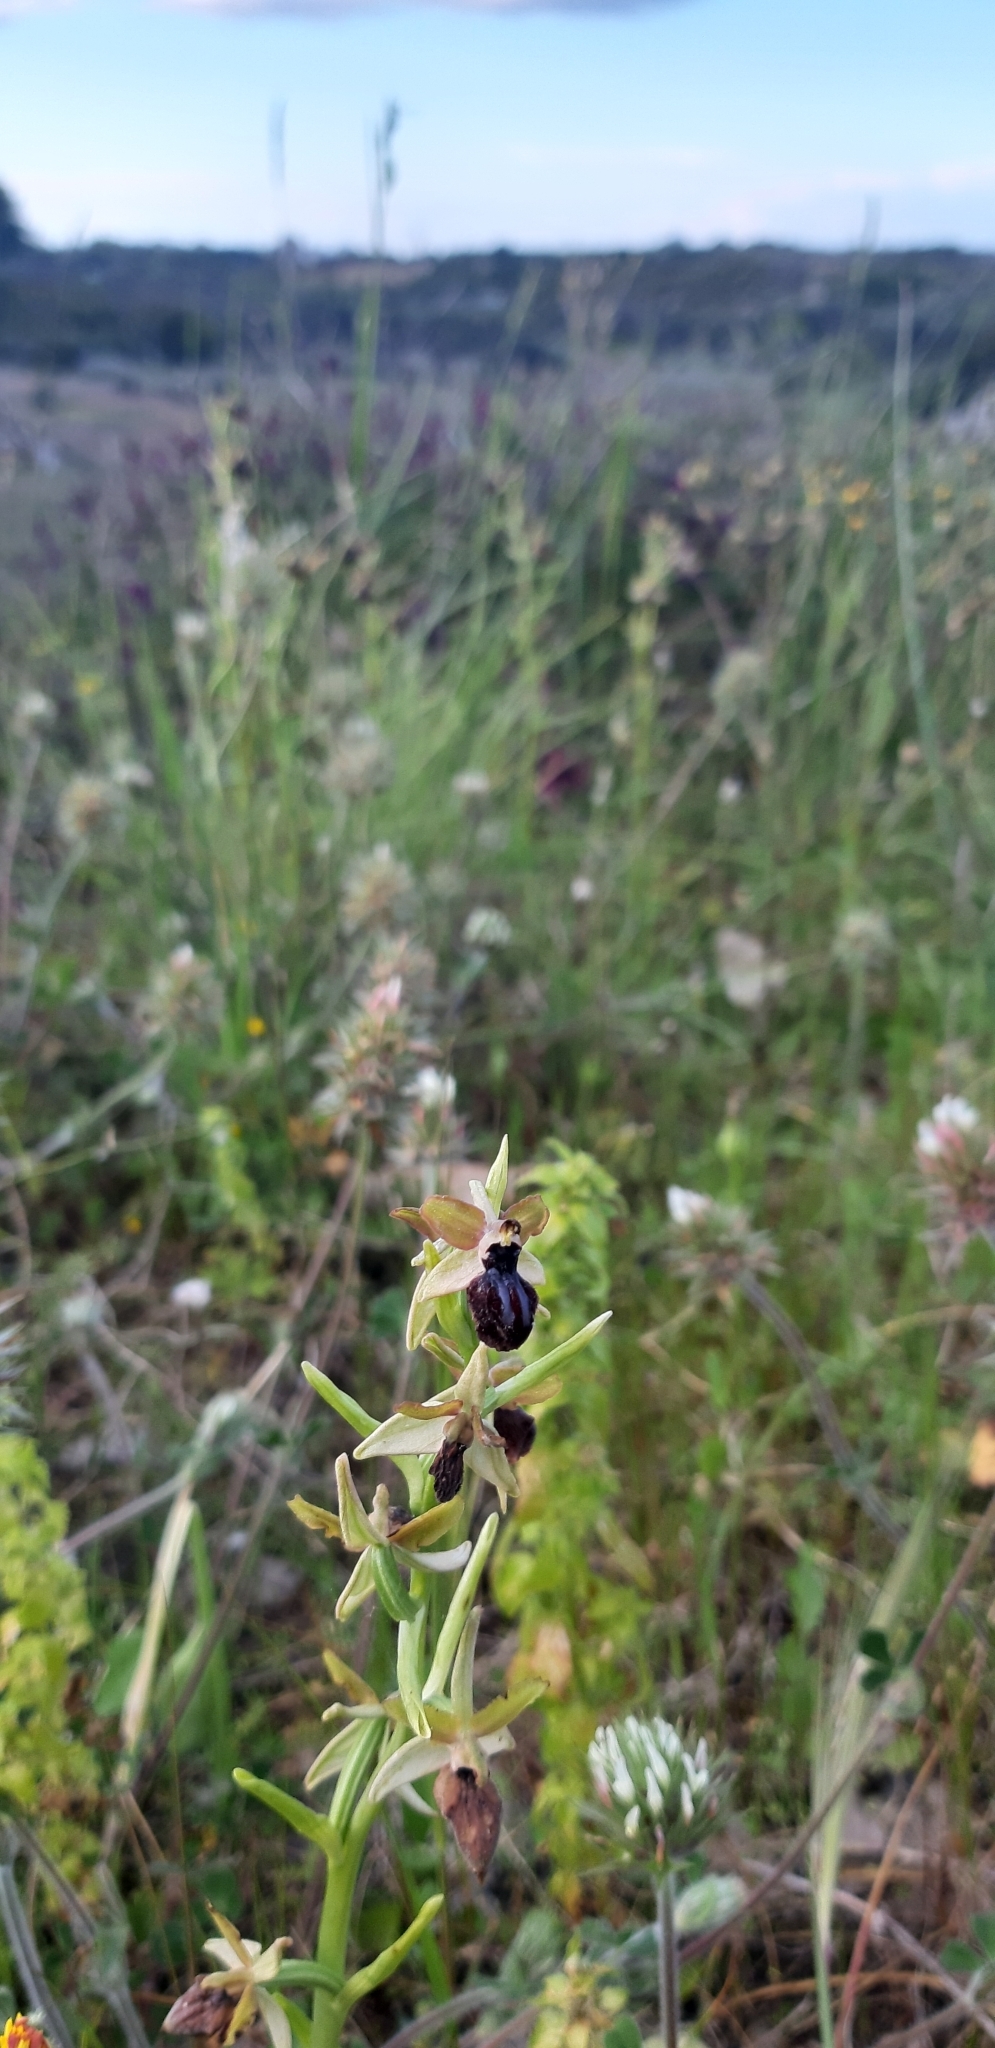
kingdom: Plantae
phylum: Tracheophyta
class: Liliopsida
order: Asparagales
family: Orchidaceae
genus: Ophrys
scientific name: Ophrys sphegodes
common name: Early spider-orchid
